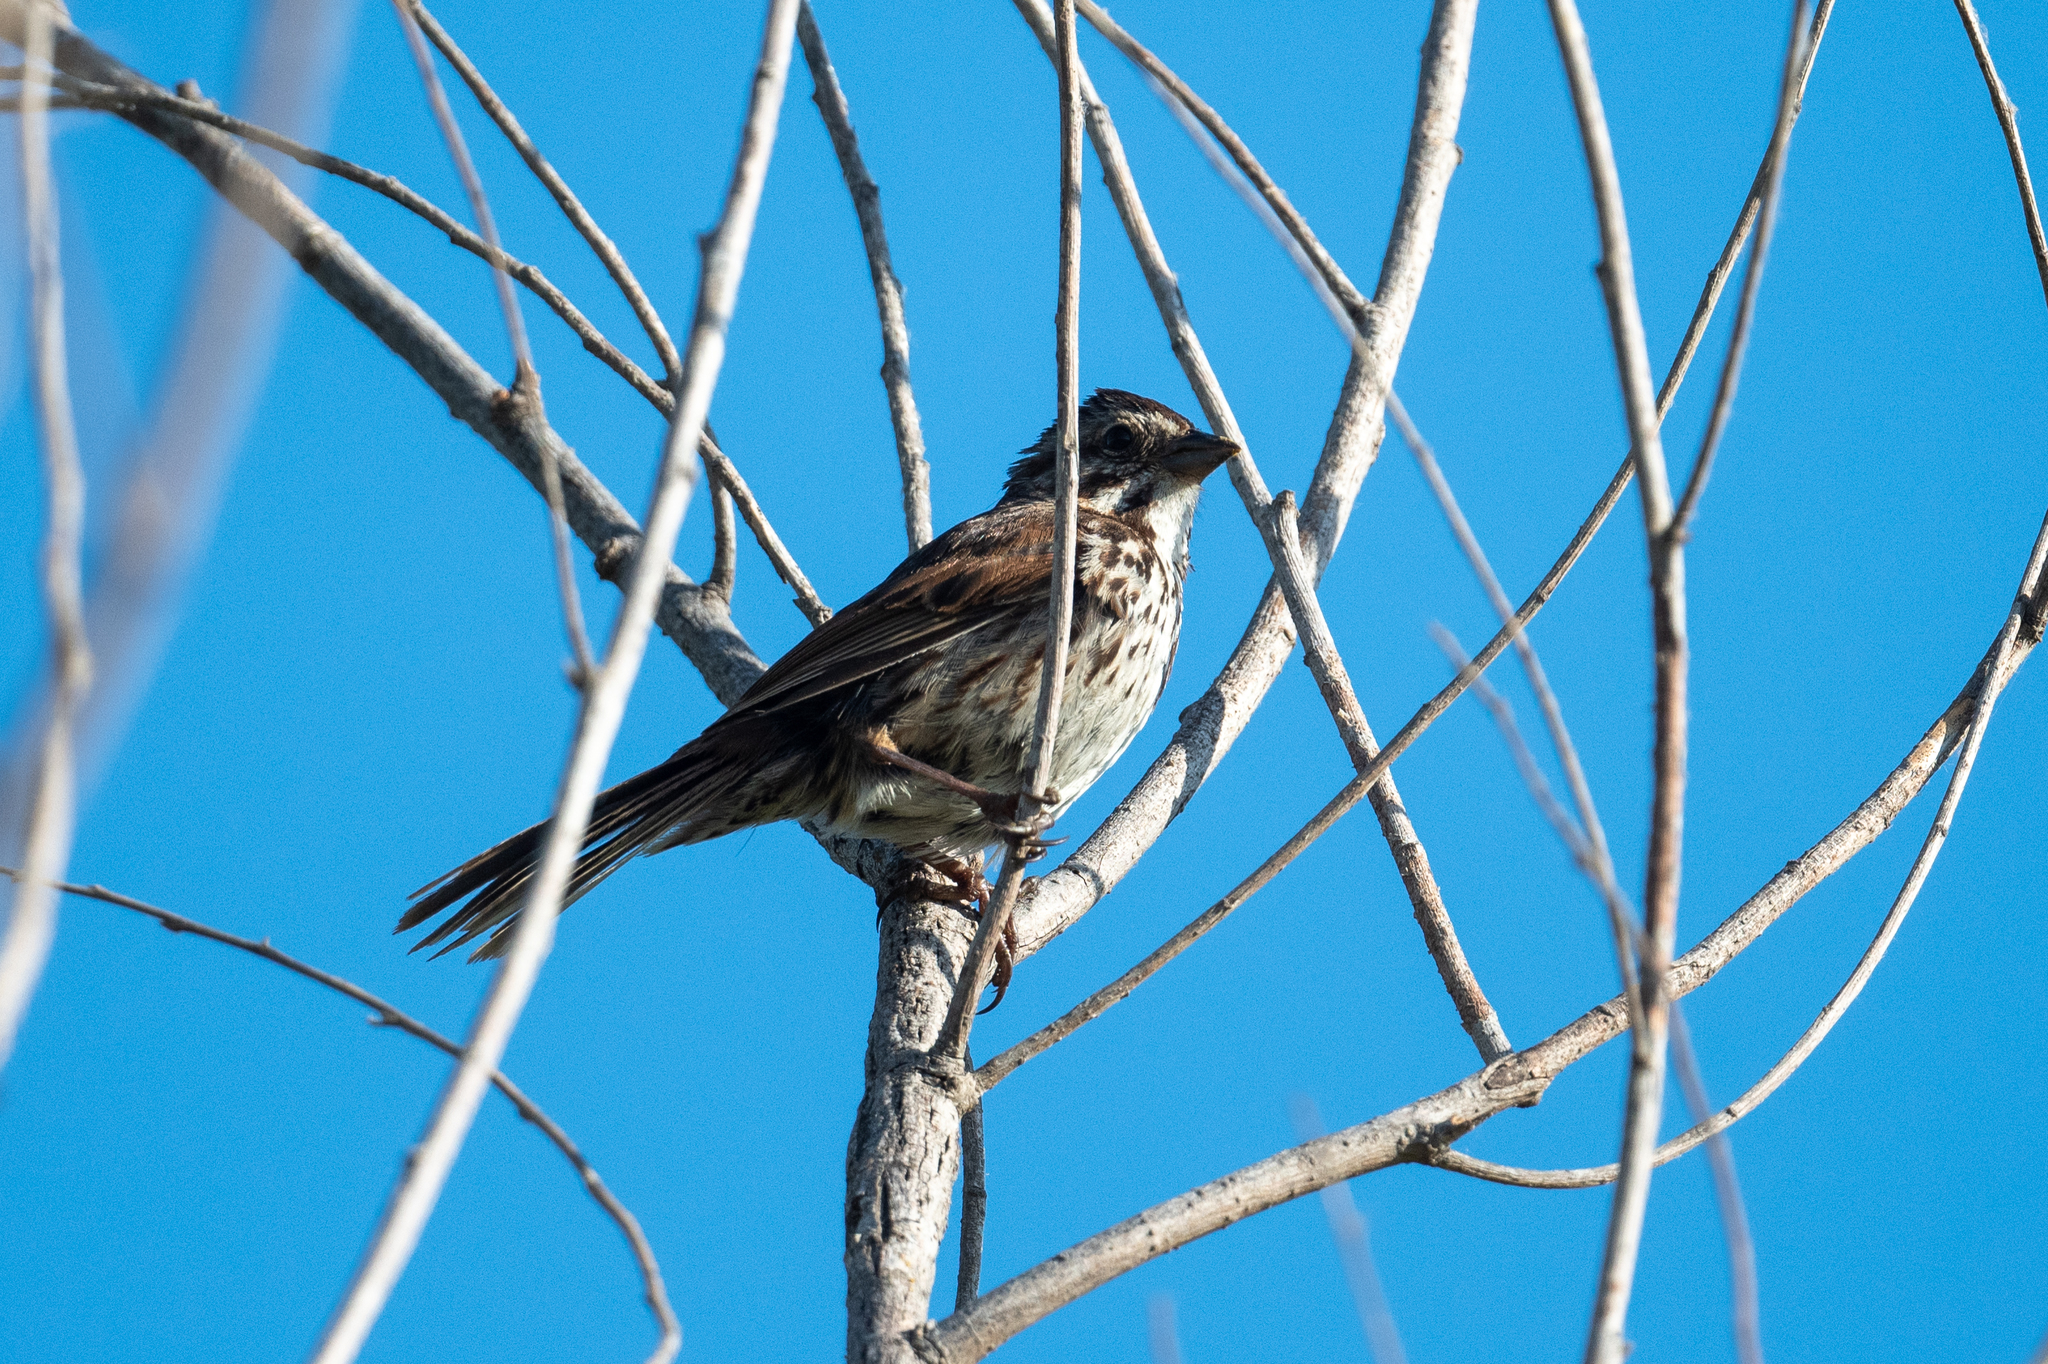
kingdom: Animalia
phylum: Chordata
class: Aves
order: Passeriformes
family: Passerellidae
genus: Melospiza
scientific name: Melospiza melodia
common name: Song sparrow
